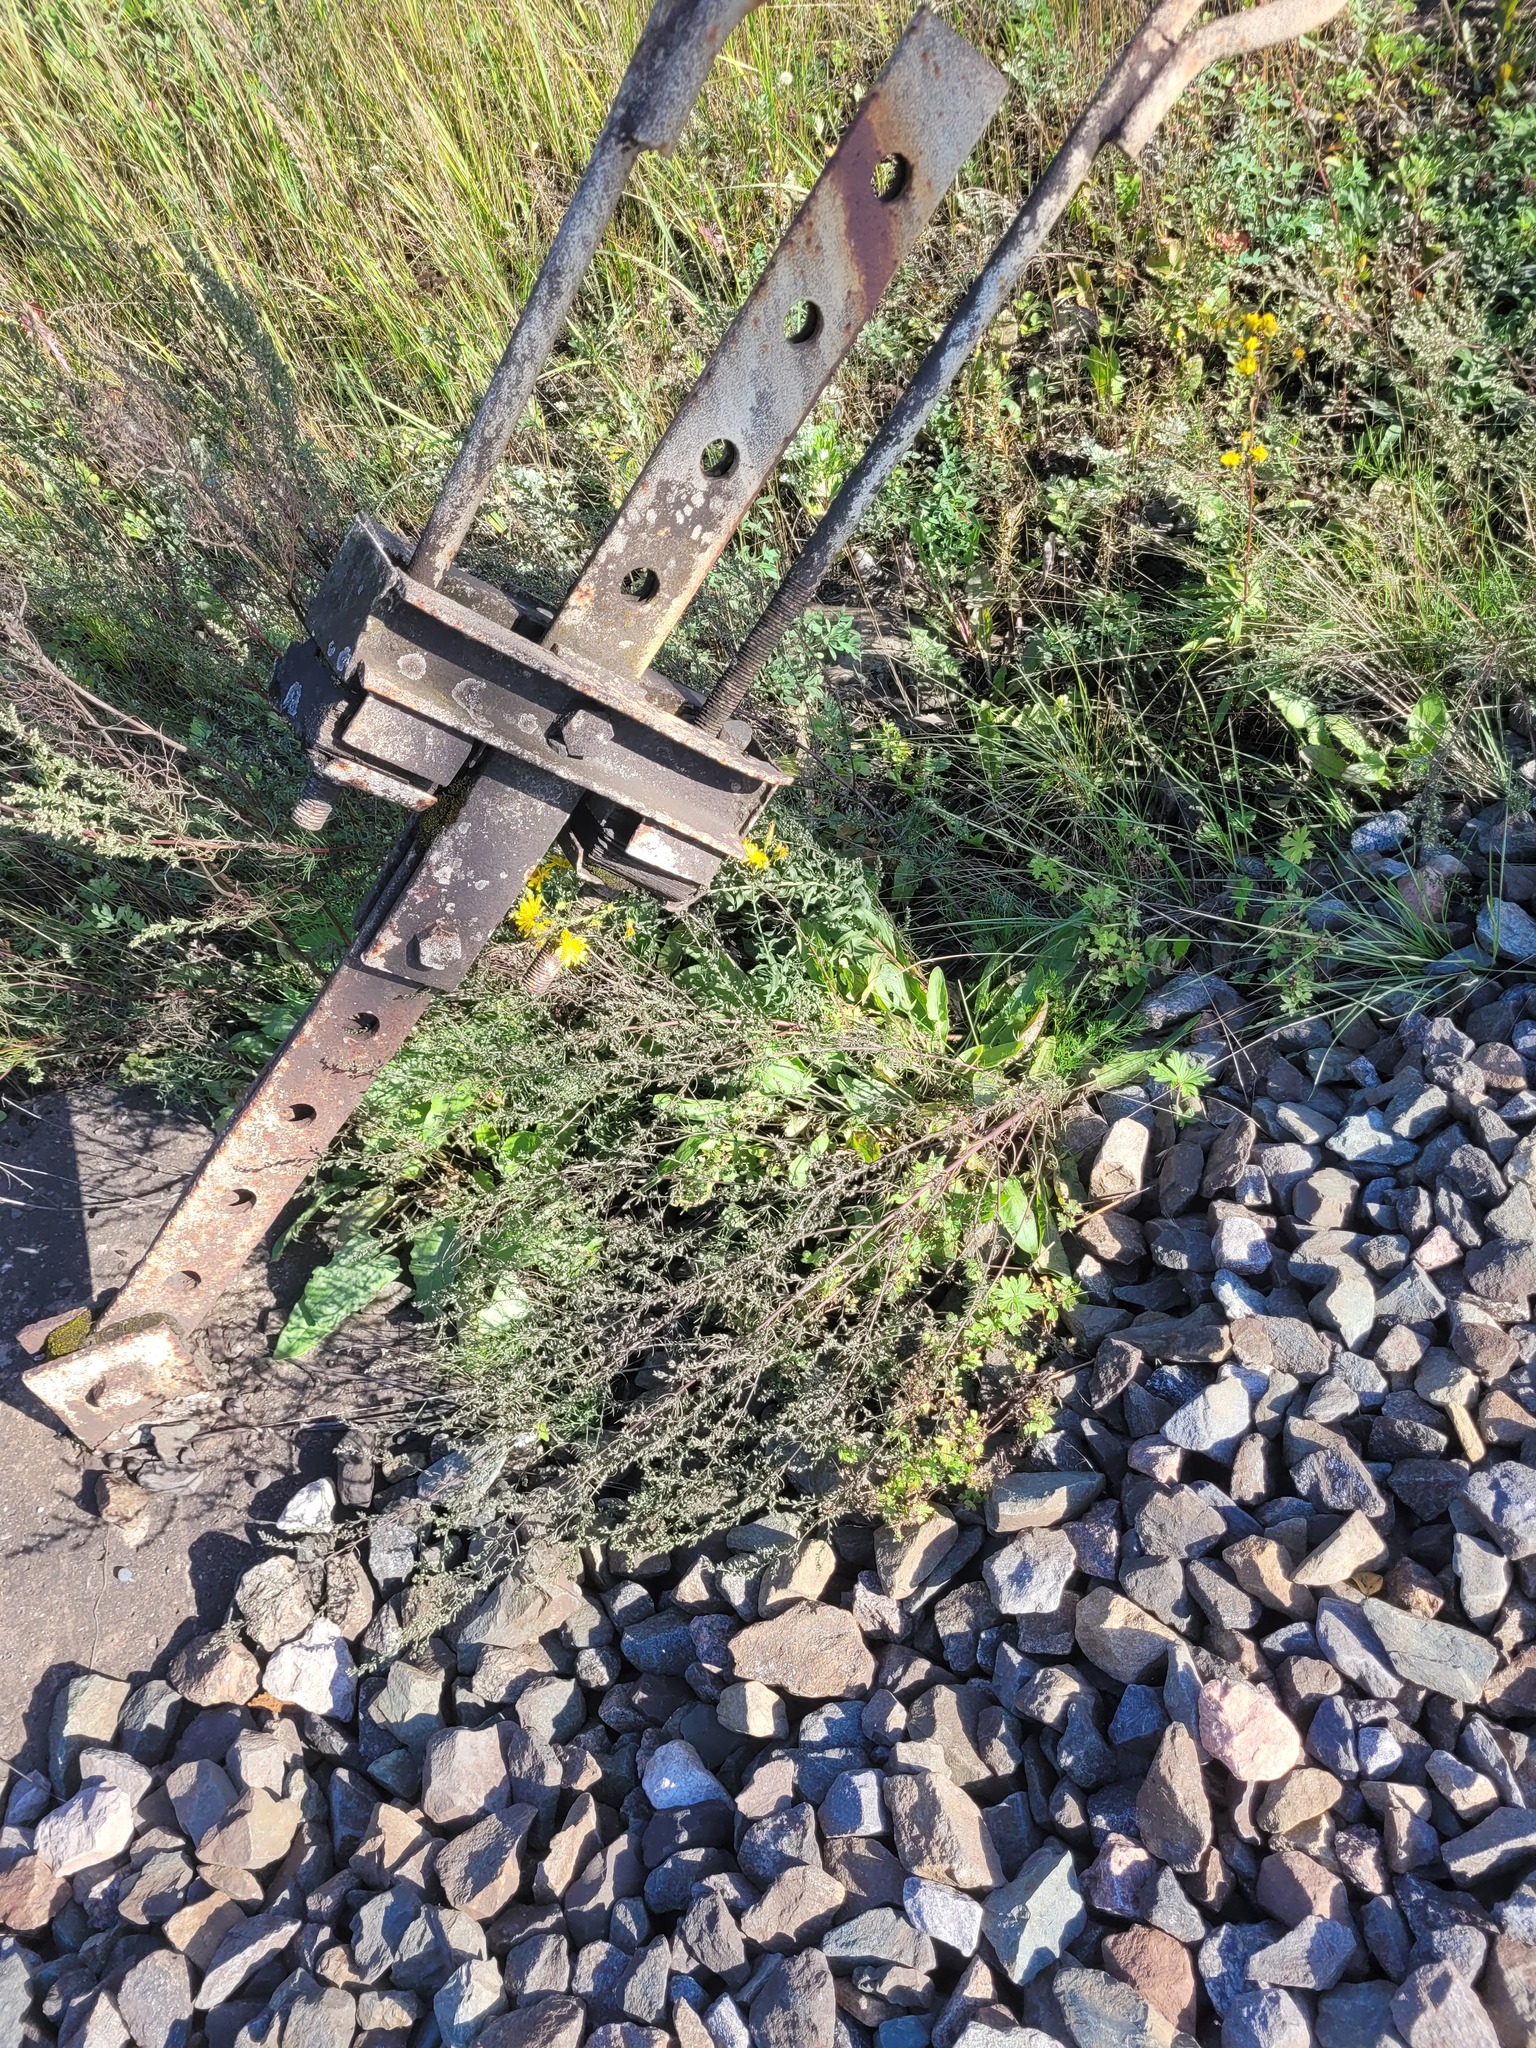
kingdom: Plantae
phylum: Tracheophyta
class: Magnoliopsida
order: Asterales
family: Asteraceae
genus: Artemisia
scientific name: Artemisia campestris
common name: Field wormwood
